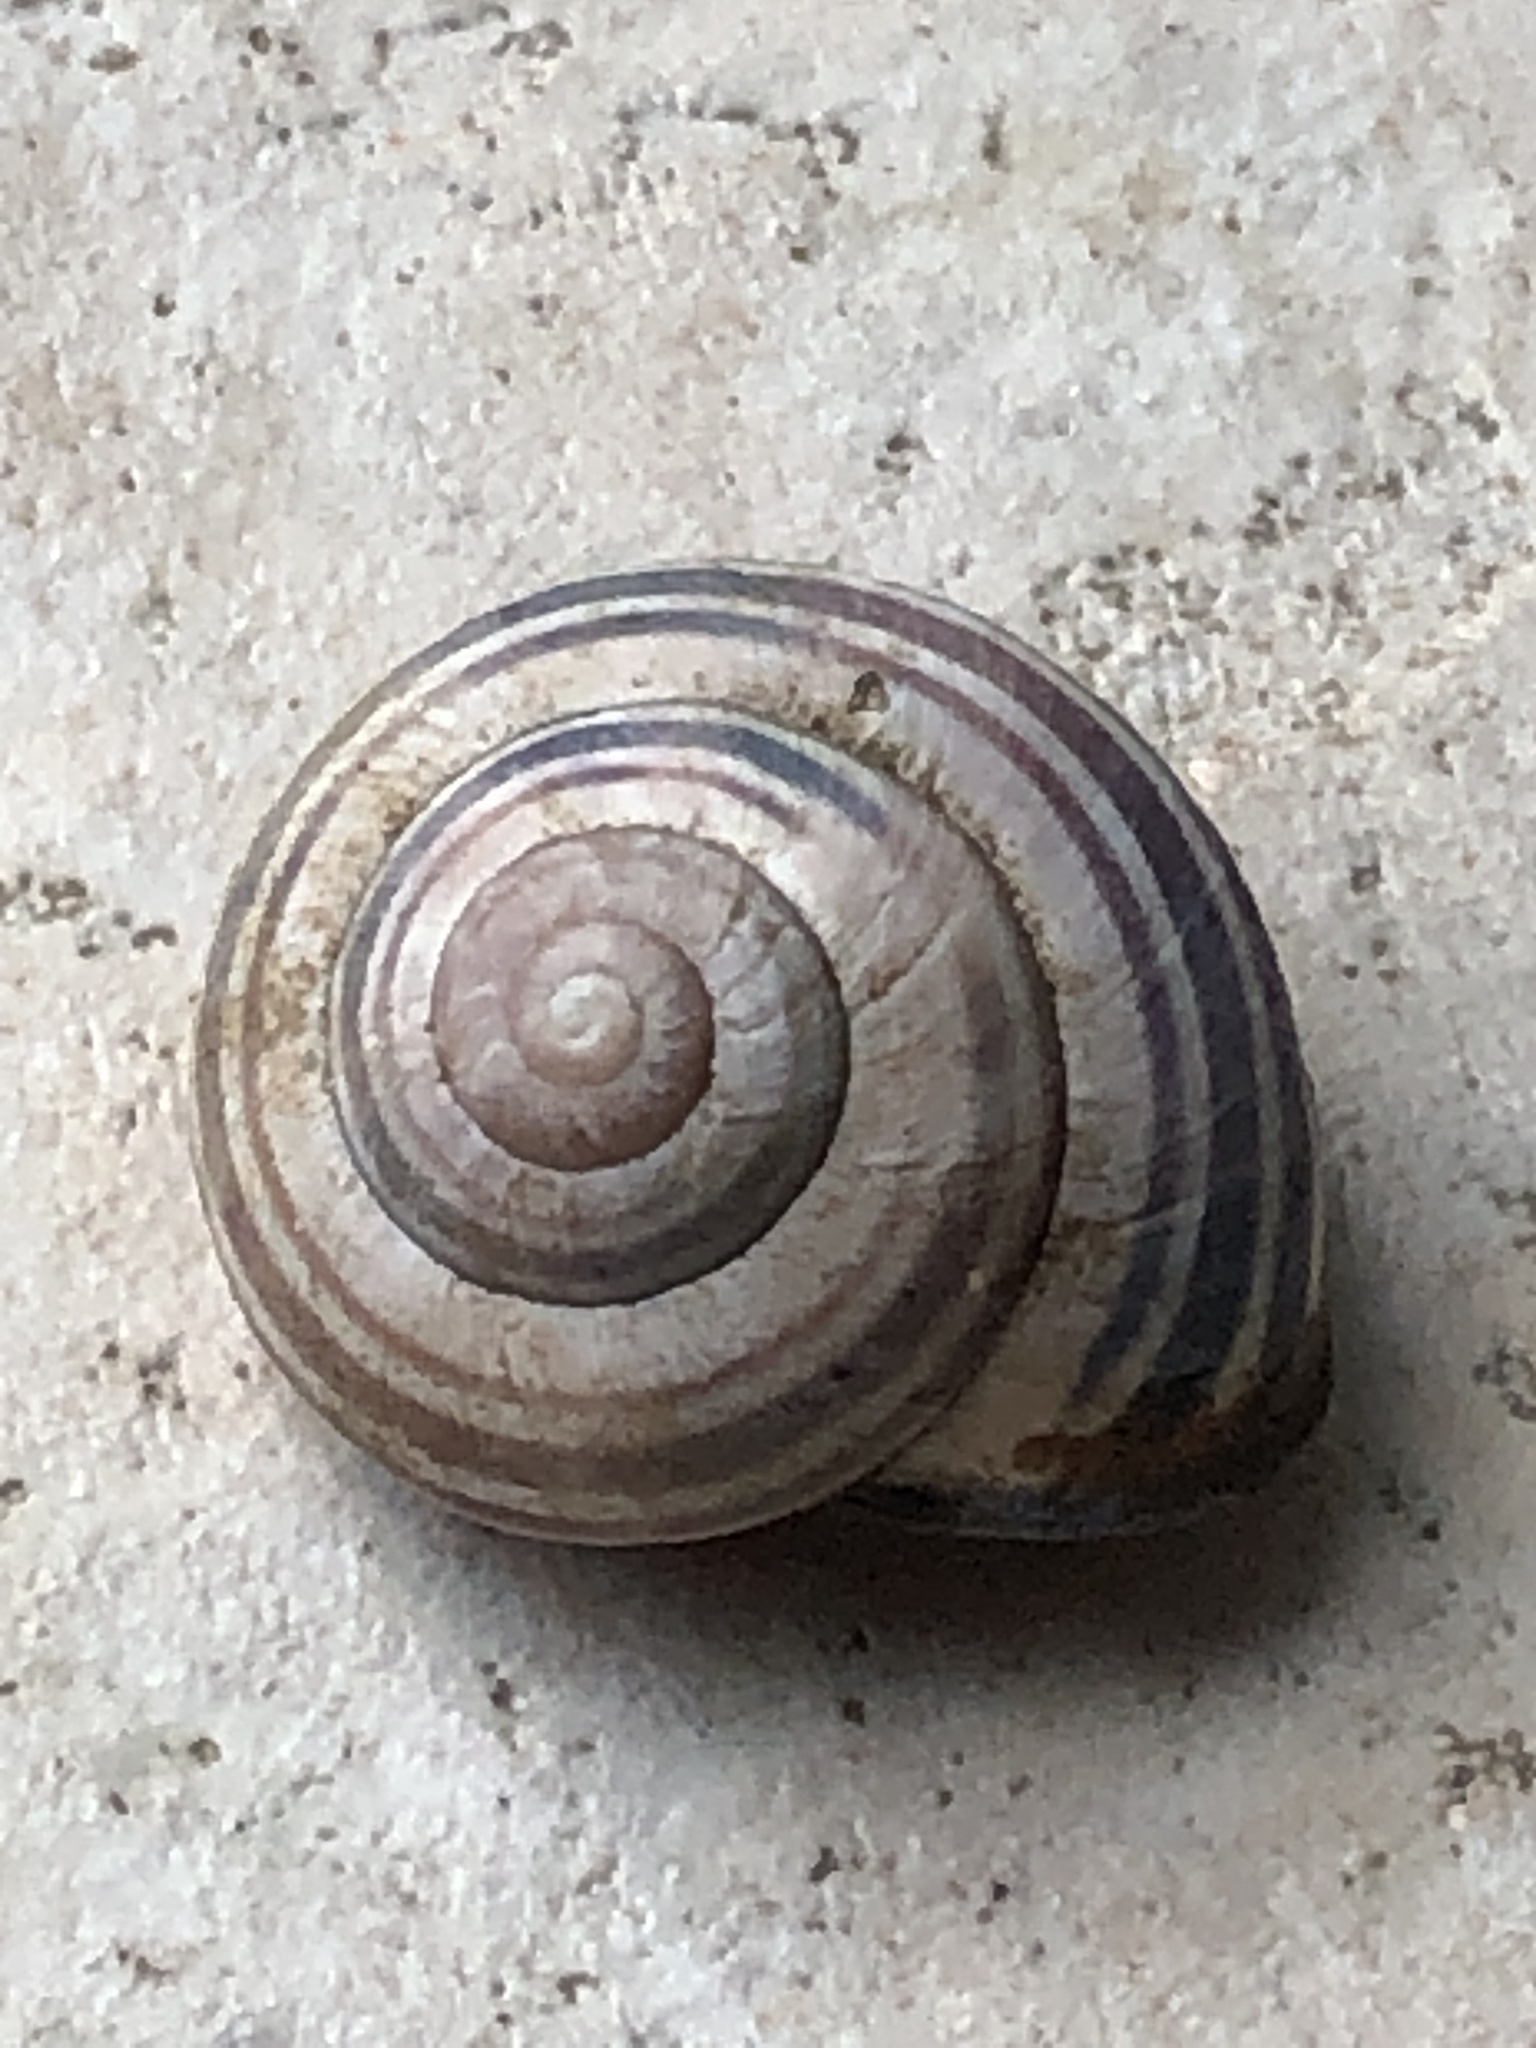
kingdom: Animalia
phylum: Mollusca
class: Gastropoda
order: Stylommatophora
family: Helicidae
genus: Cepaea
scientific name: Cepaea nemoralis
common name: Grovesnail
